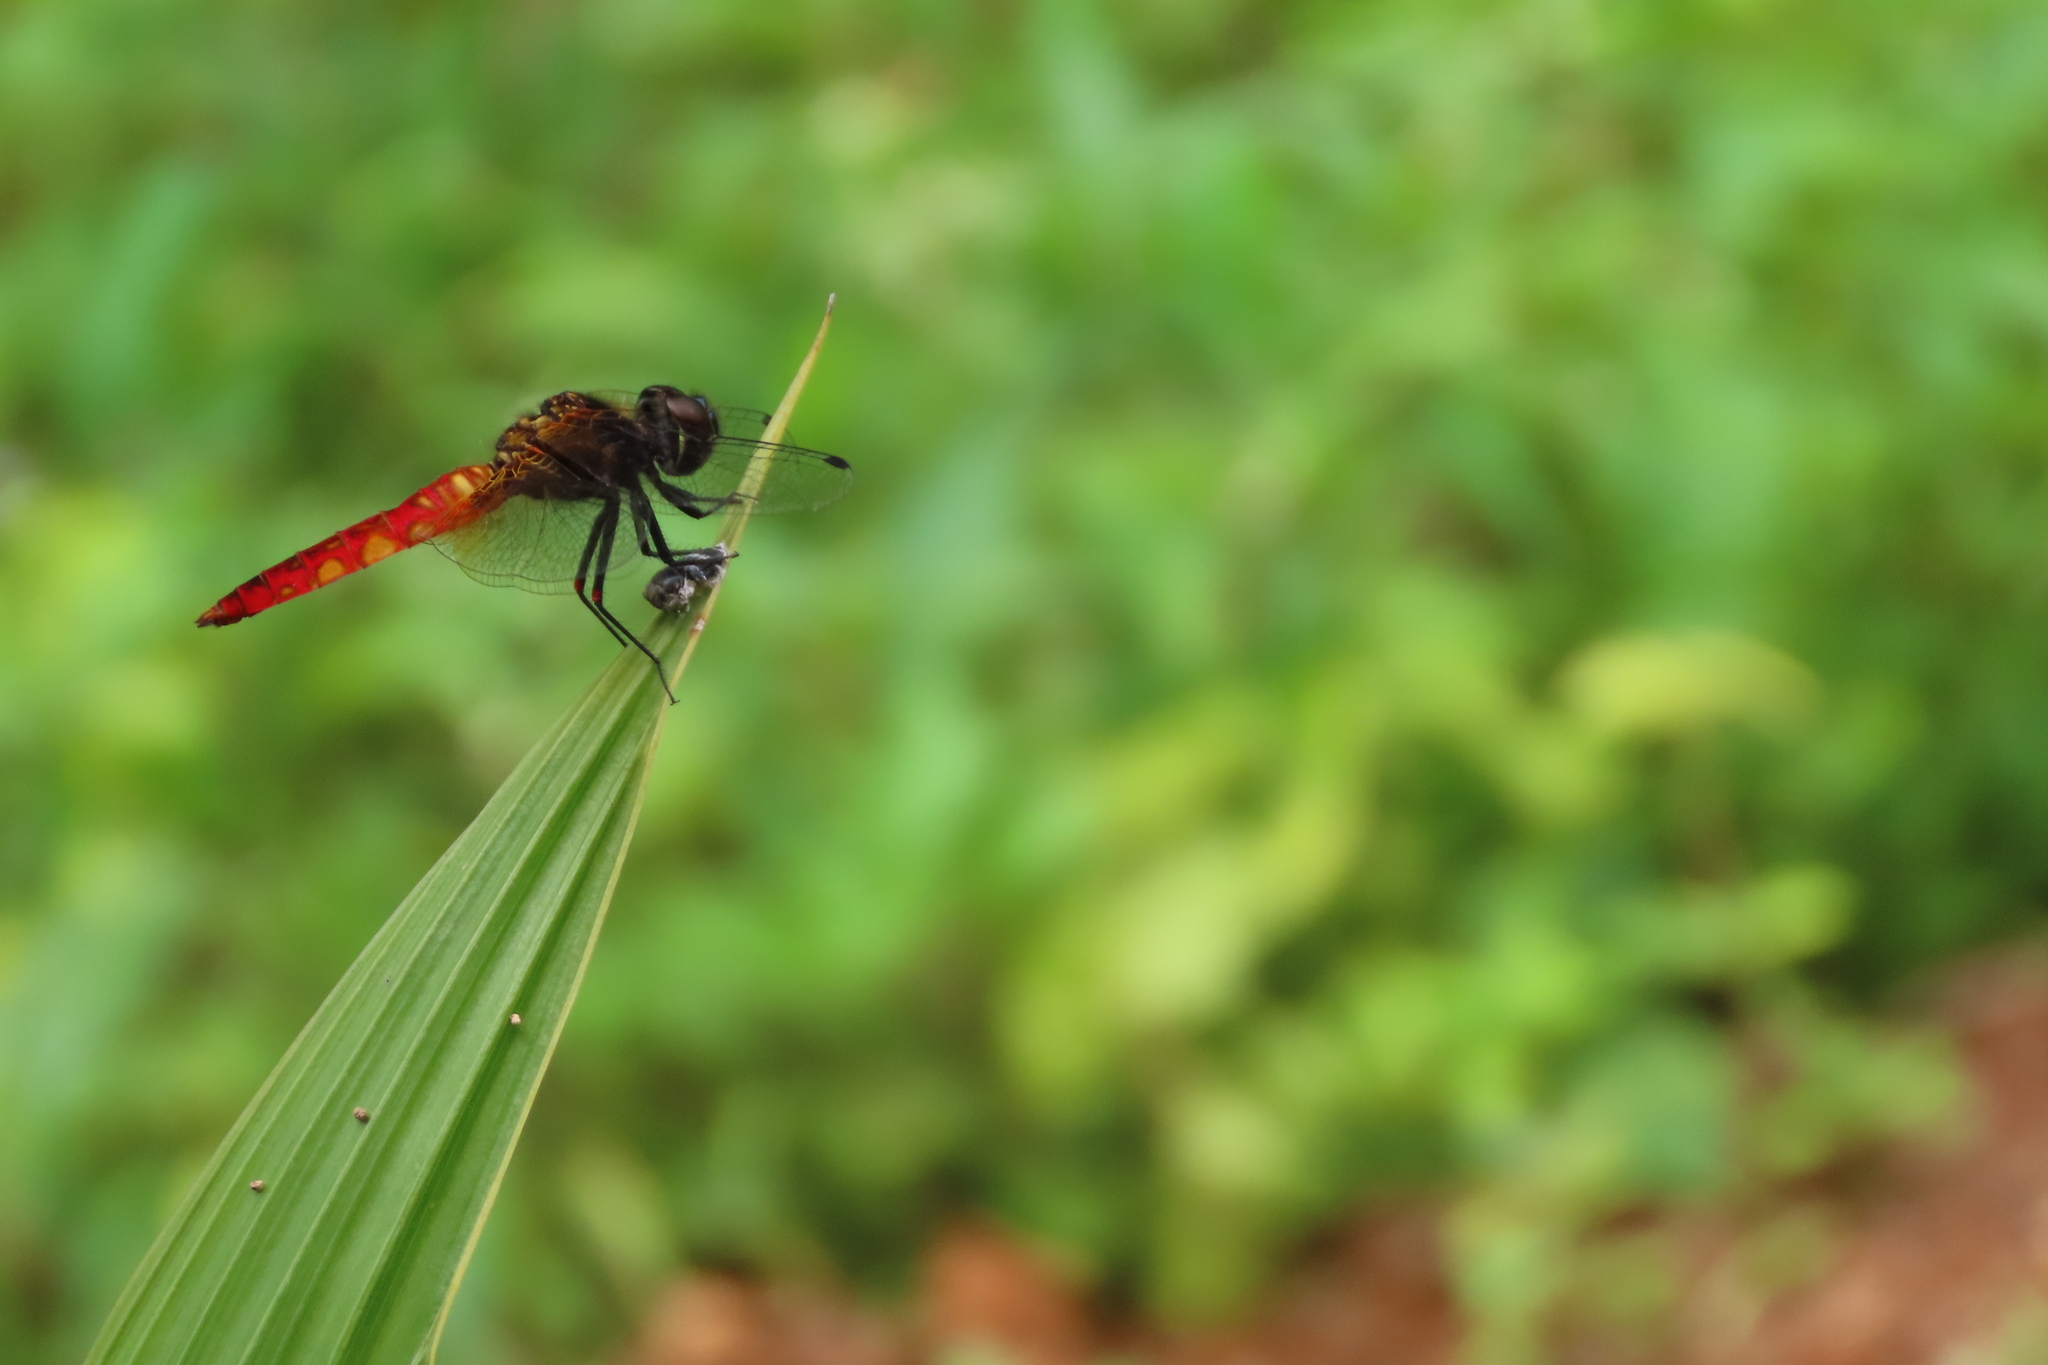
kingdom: Animalia
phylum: Arthropoda
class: Insecta
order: Odonata
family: Libellulidae
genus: Aethriamanta
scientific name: Aethriamanta brevipennis
